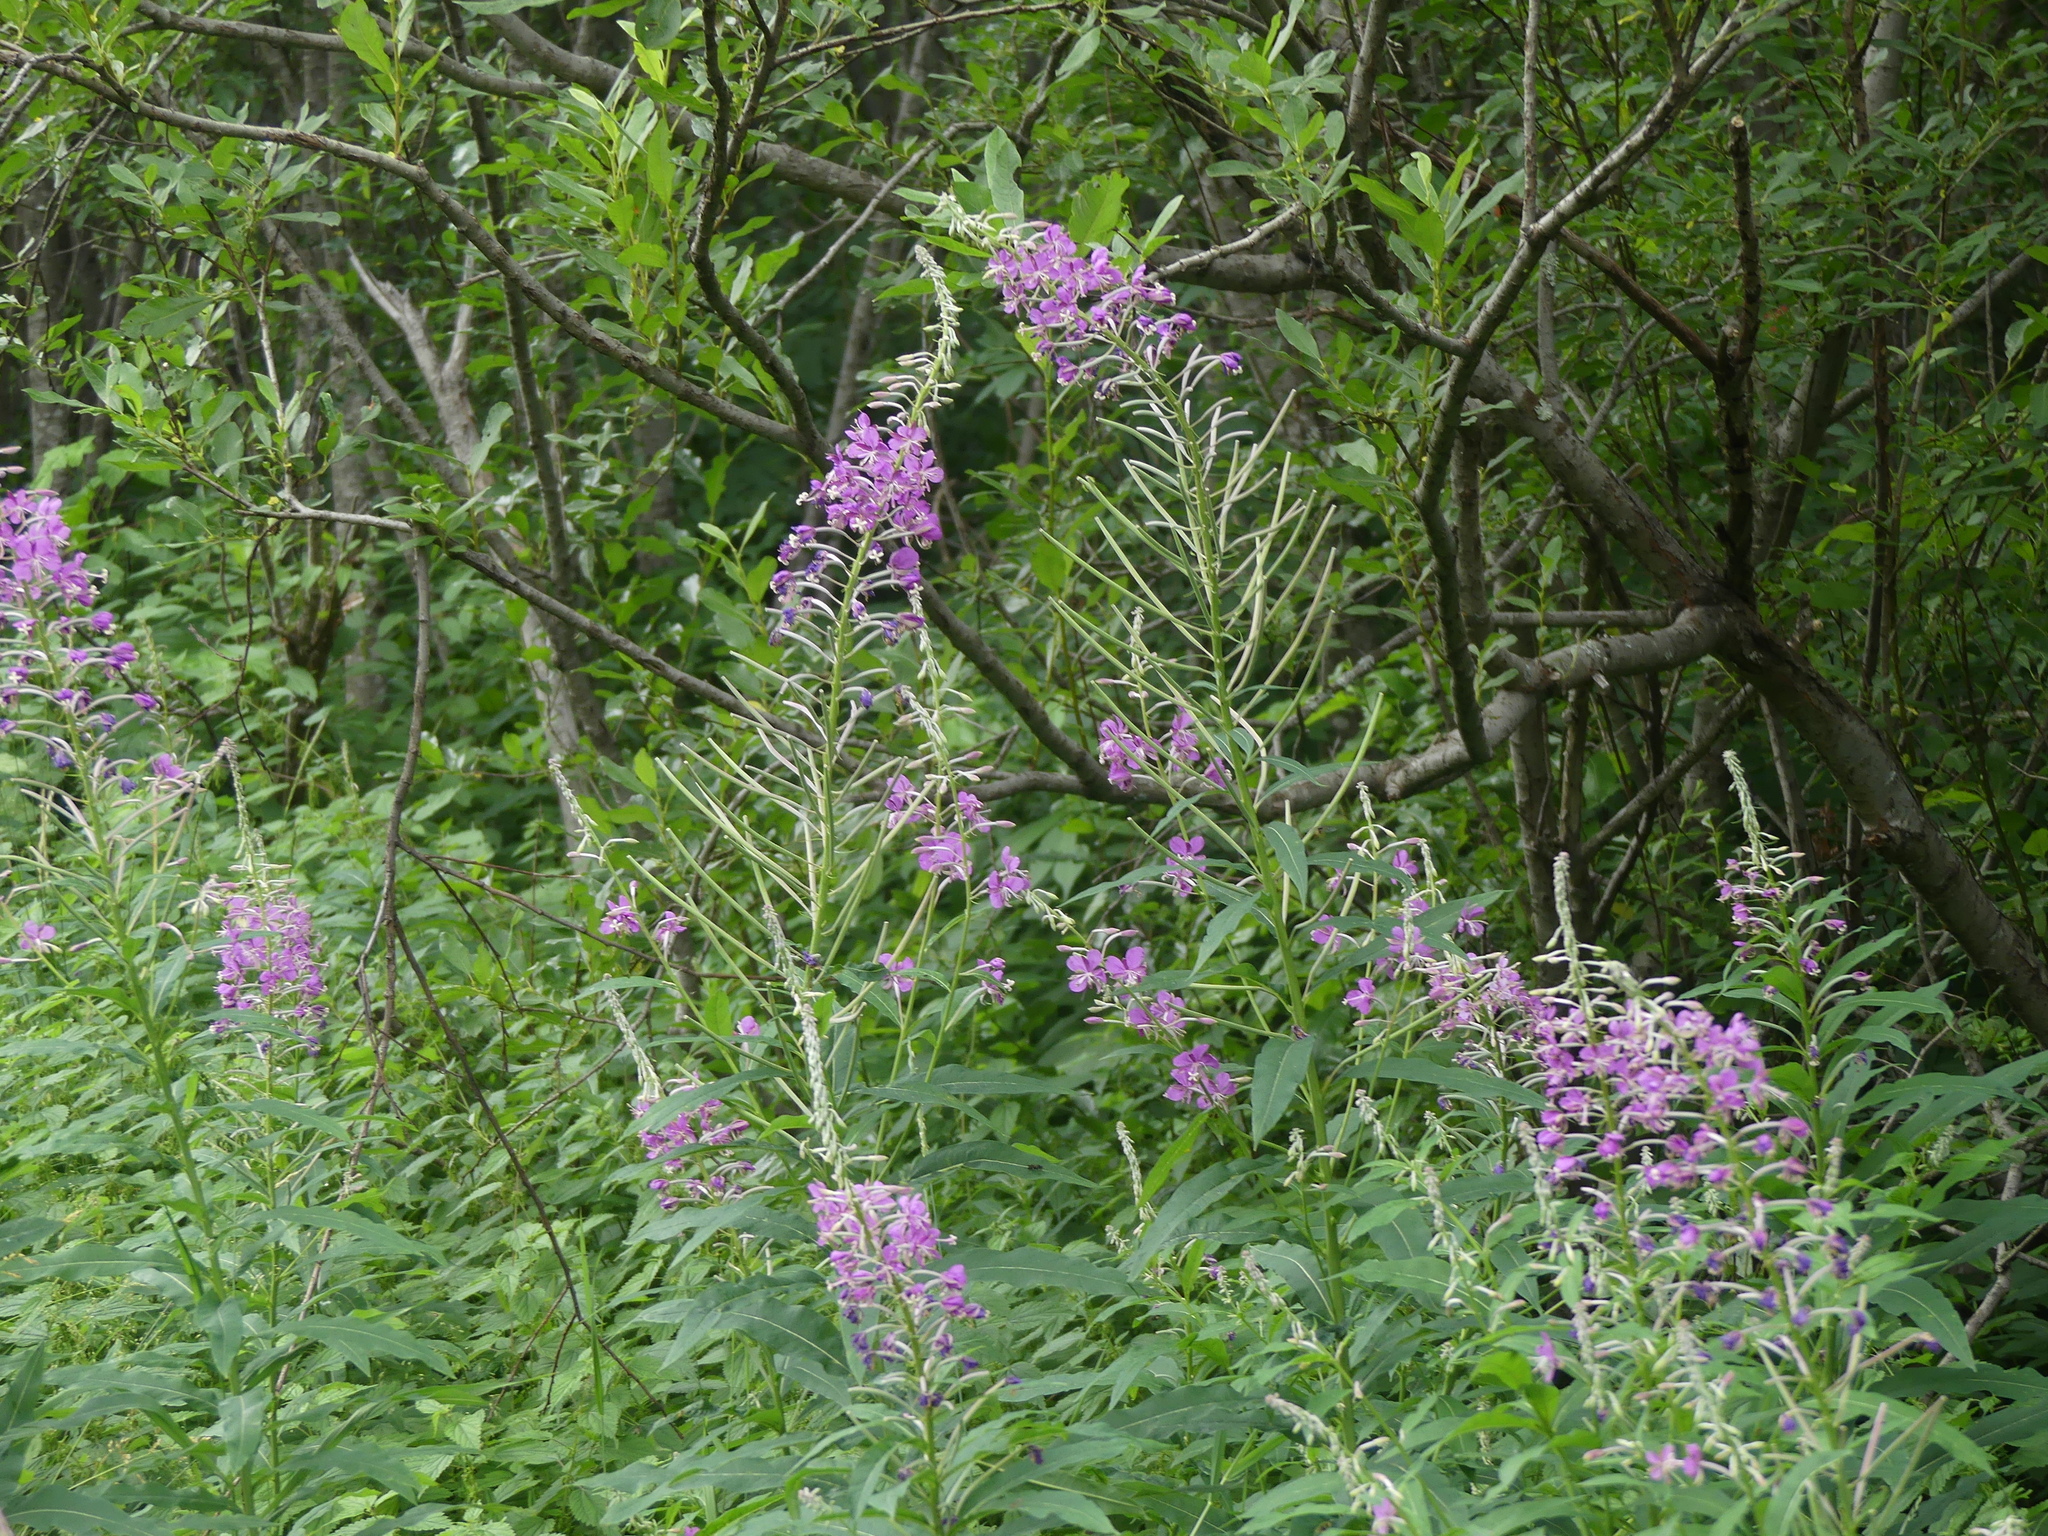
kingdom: Plantae
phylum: Tracheophyta
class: Magnoliopsida
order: Myrtales
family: Onagraceae
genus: Chamaenerion
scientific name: Chamaenerion angustifolium
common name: Fireweed
